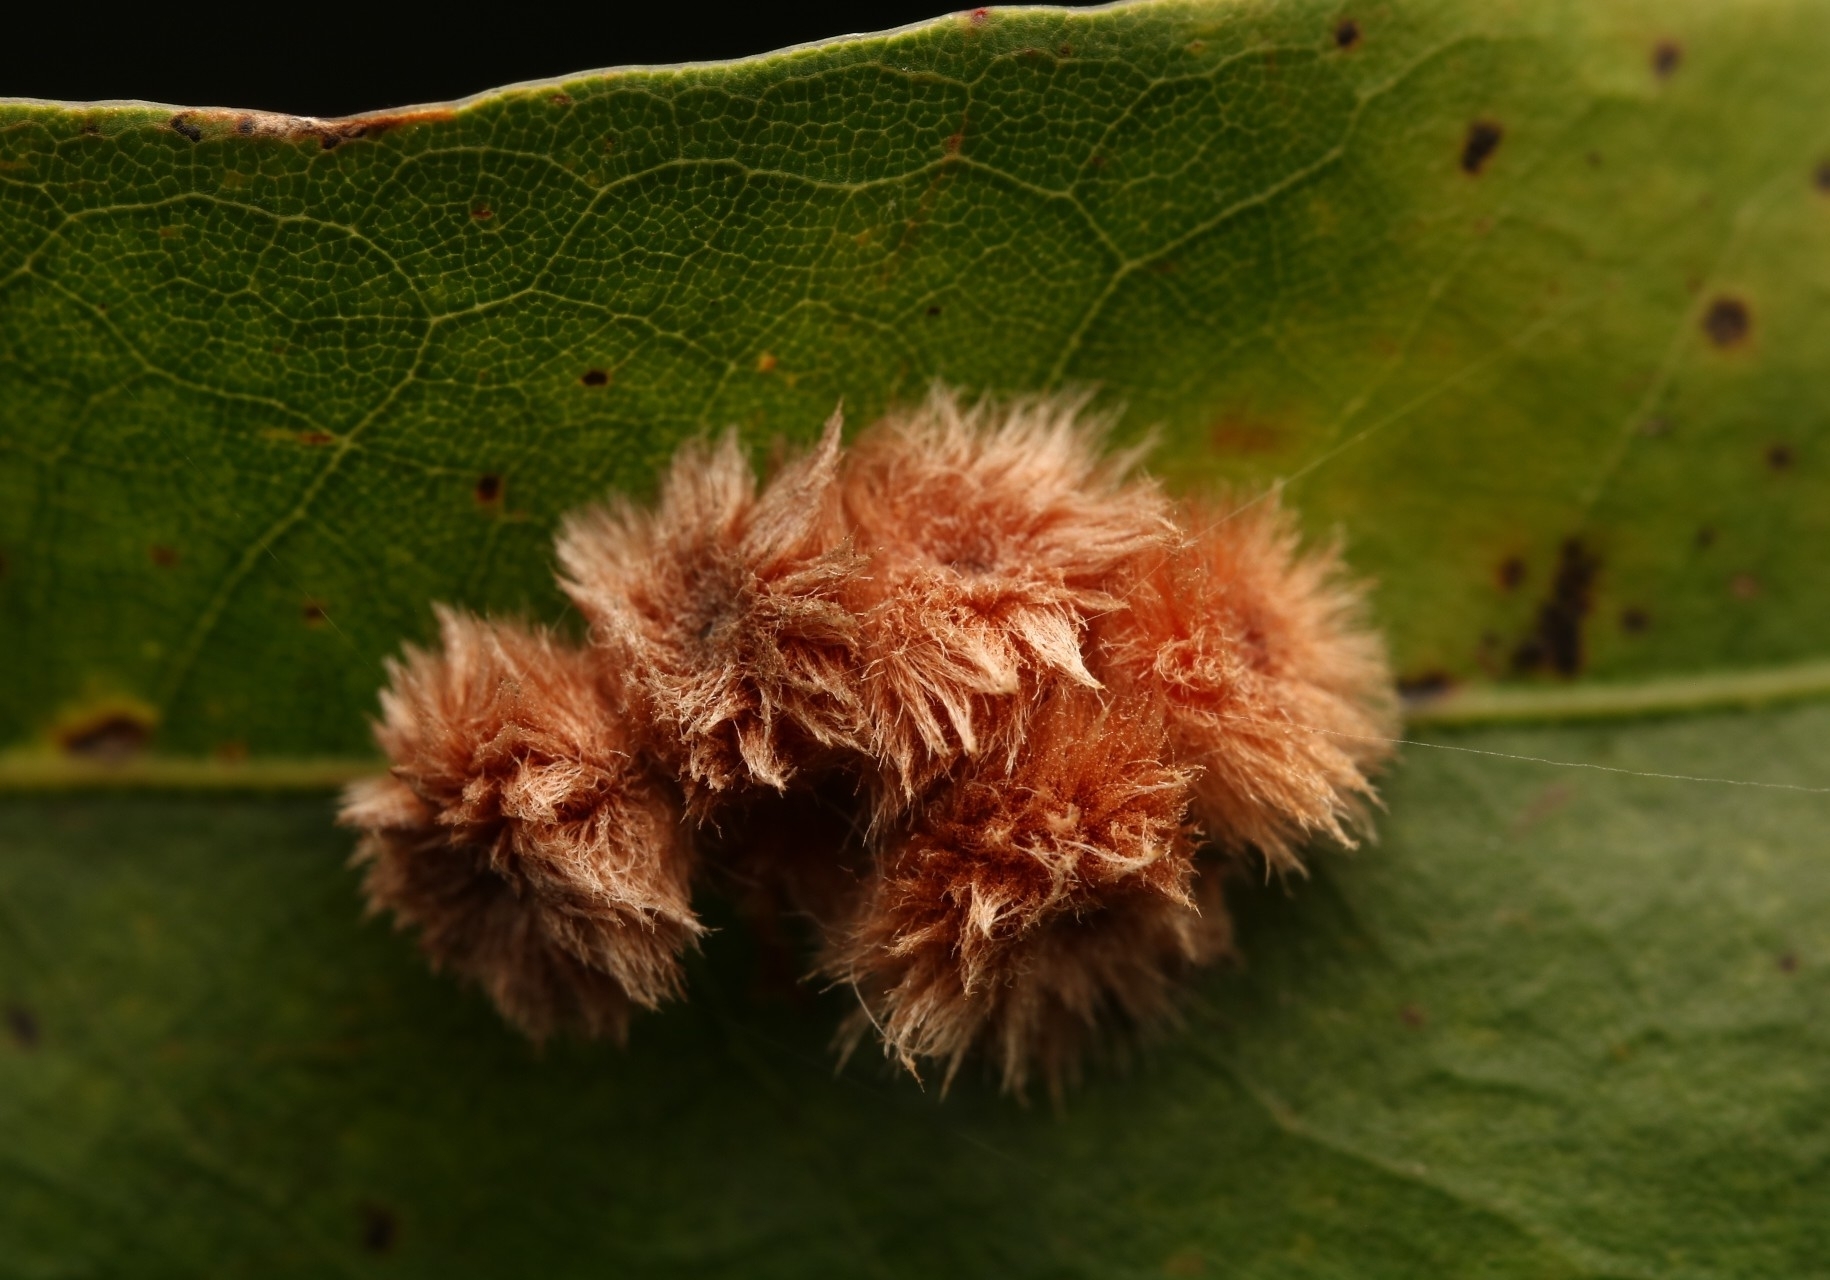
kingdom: Animalia
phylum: Arthropoda
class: Insecta
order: Hymenoptera
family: Cynipidae
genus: Callirhytis
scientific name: Callirhytis
